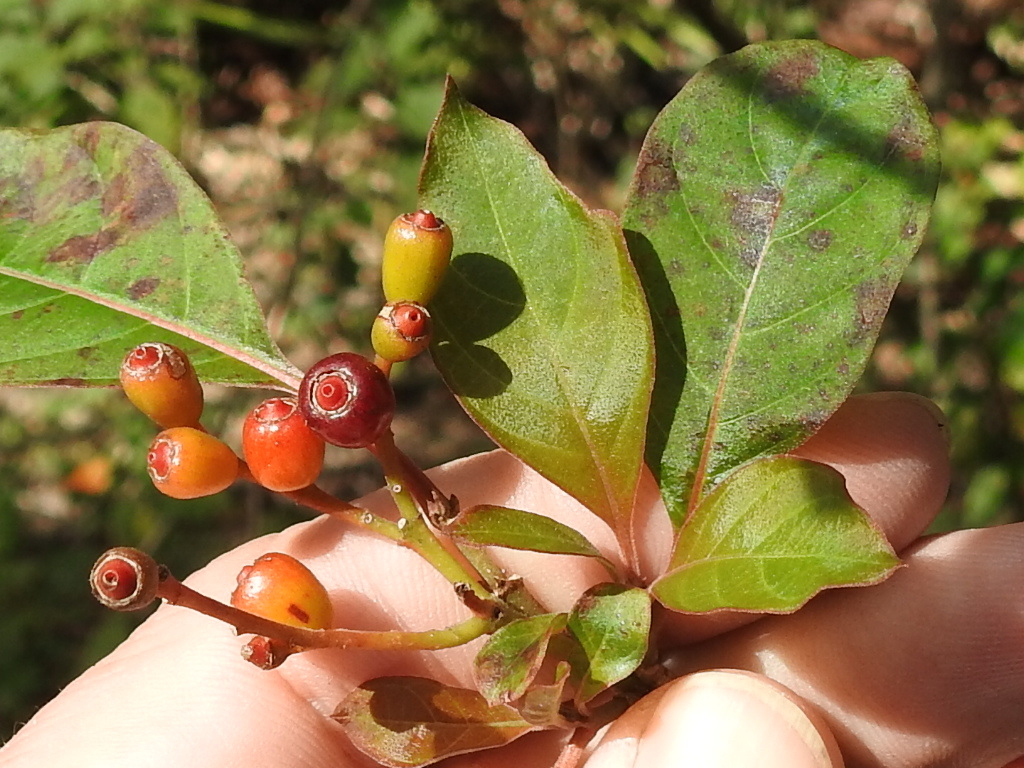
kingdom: Plantae
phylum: Tracheophyta
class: Magnoliopsida
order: Gentianales
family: Rubiaceae
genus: Hamelia
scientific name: Hamelia patens
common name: Redhead
